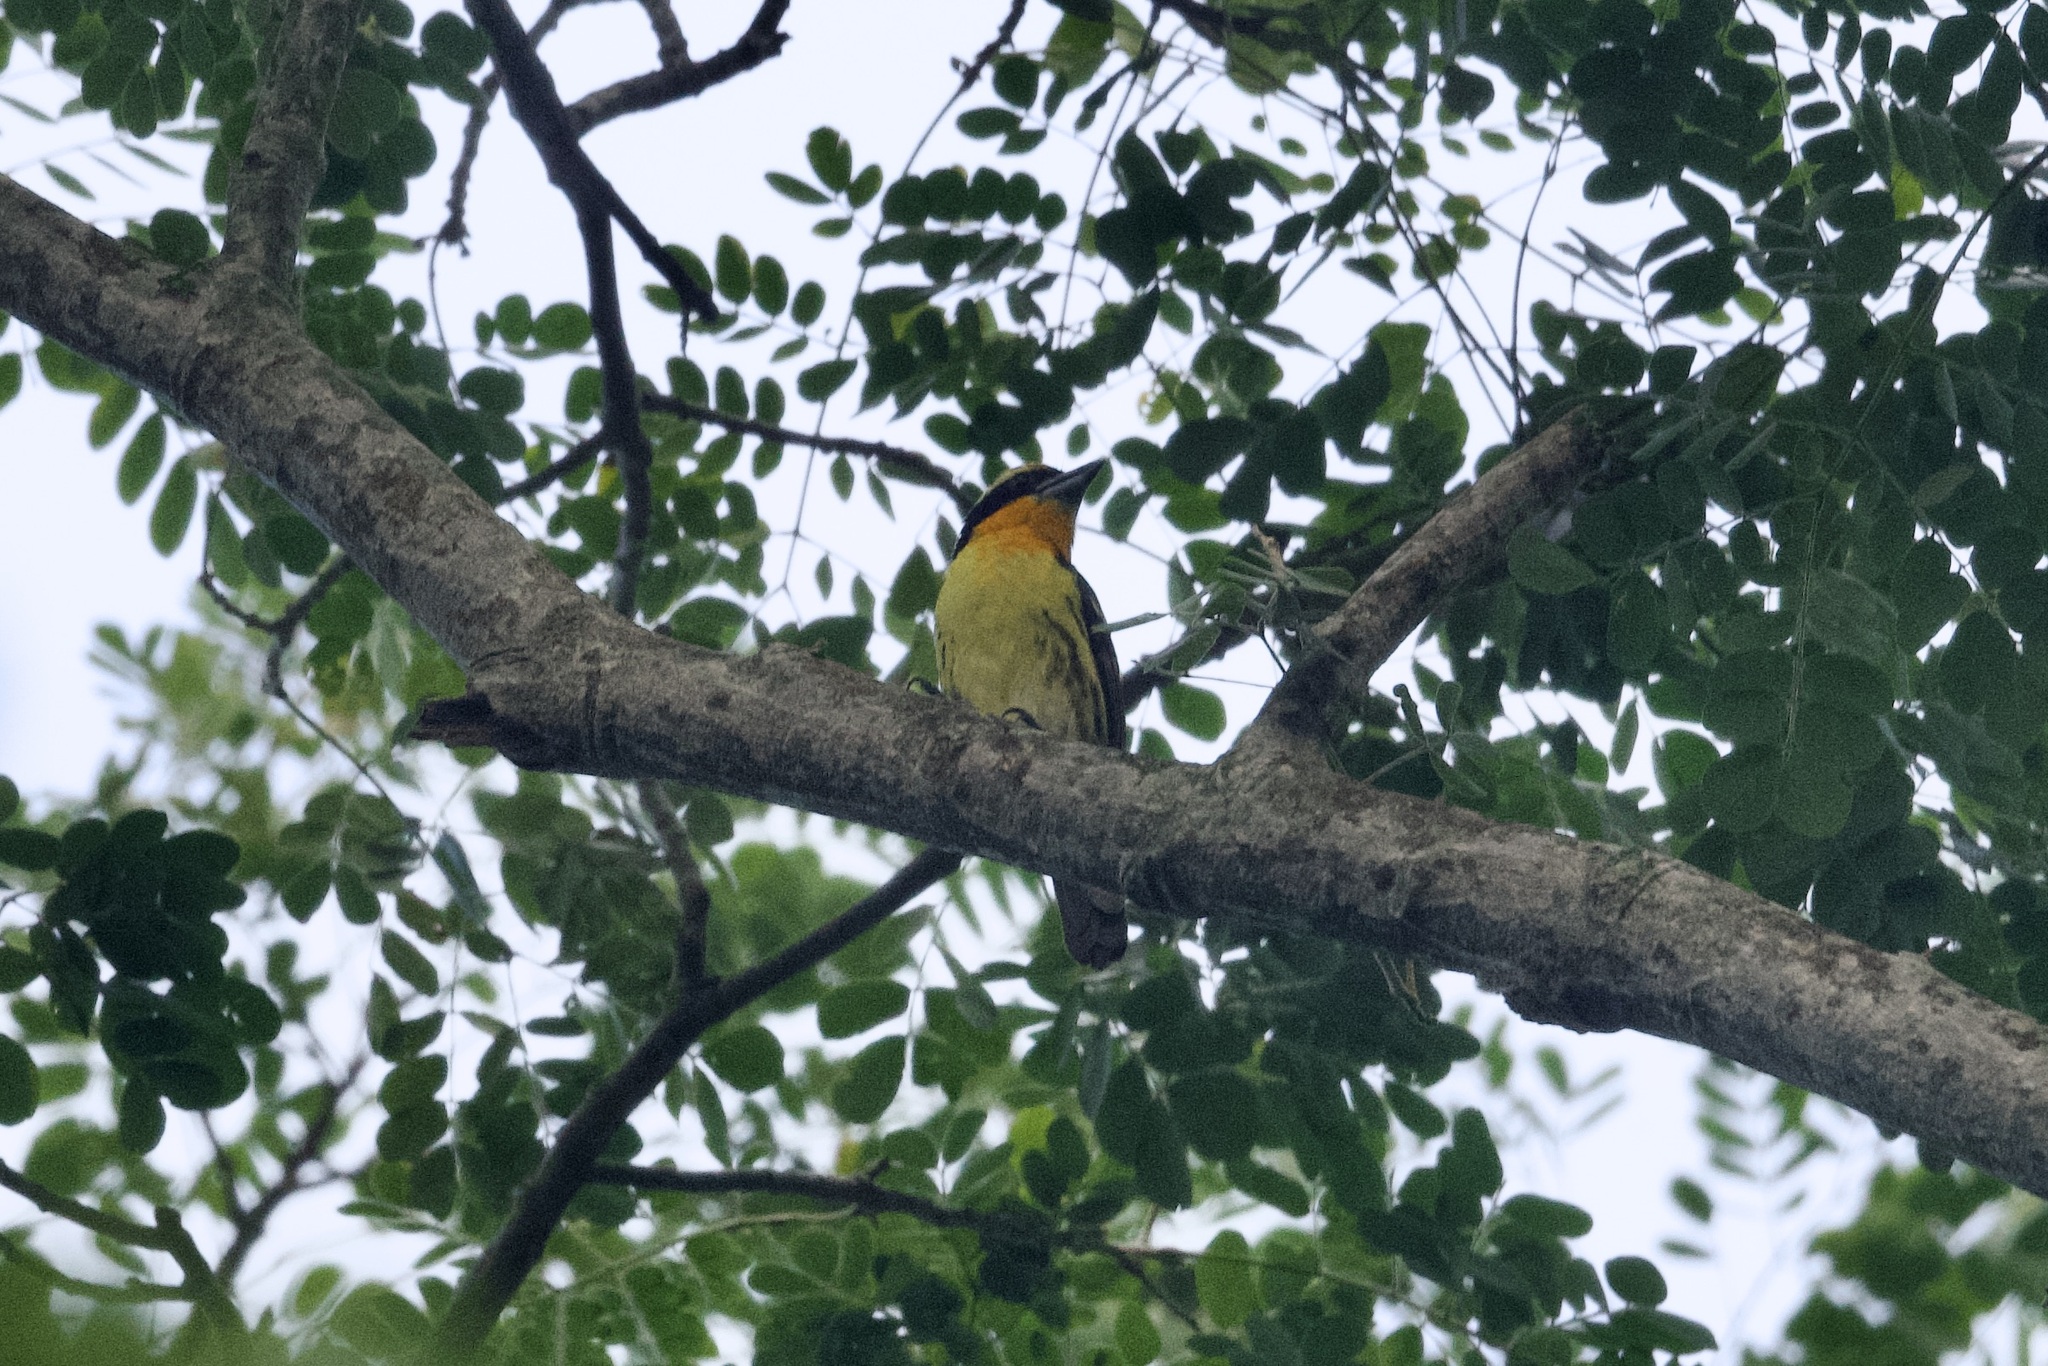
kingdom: Animalia
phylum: Chordata
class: Aves
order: Piciformes
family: Capitonidae
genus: Capito
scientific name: Capito auratus
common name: Gilded barbet
